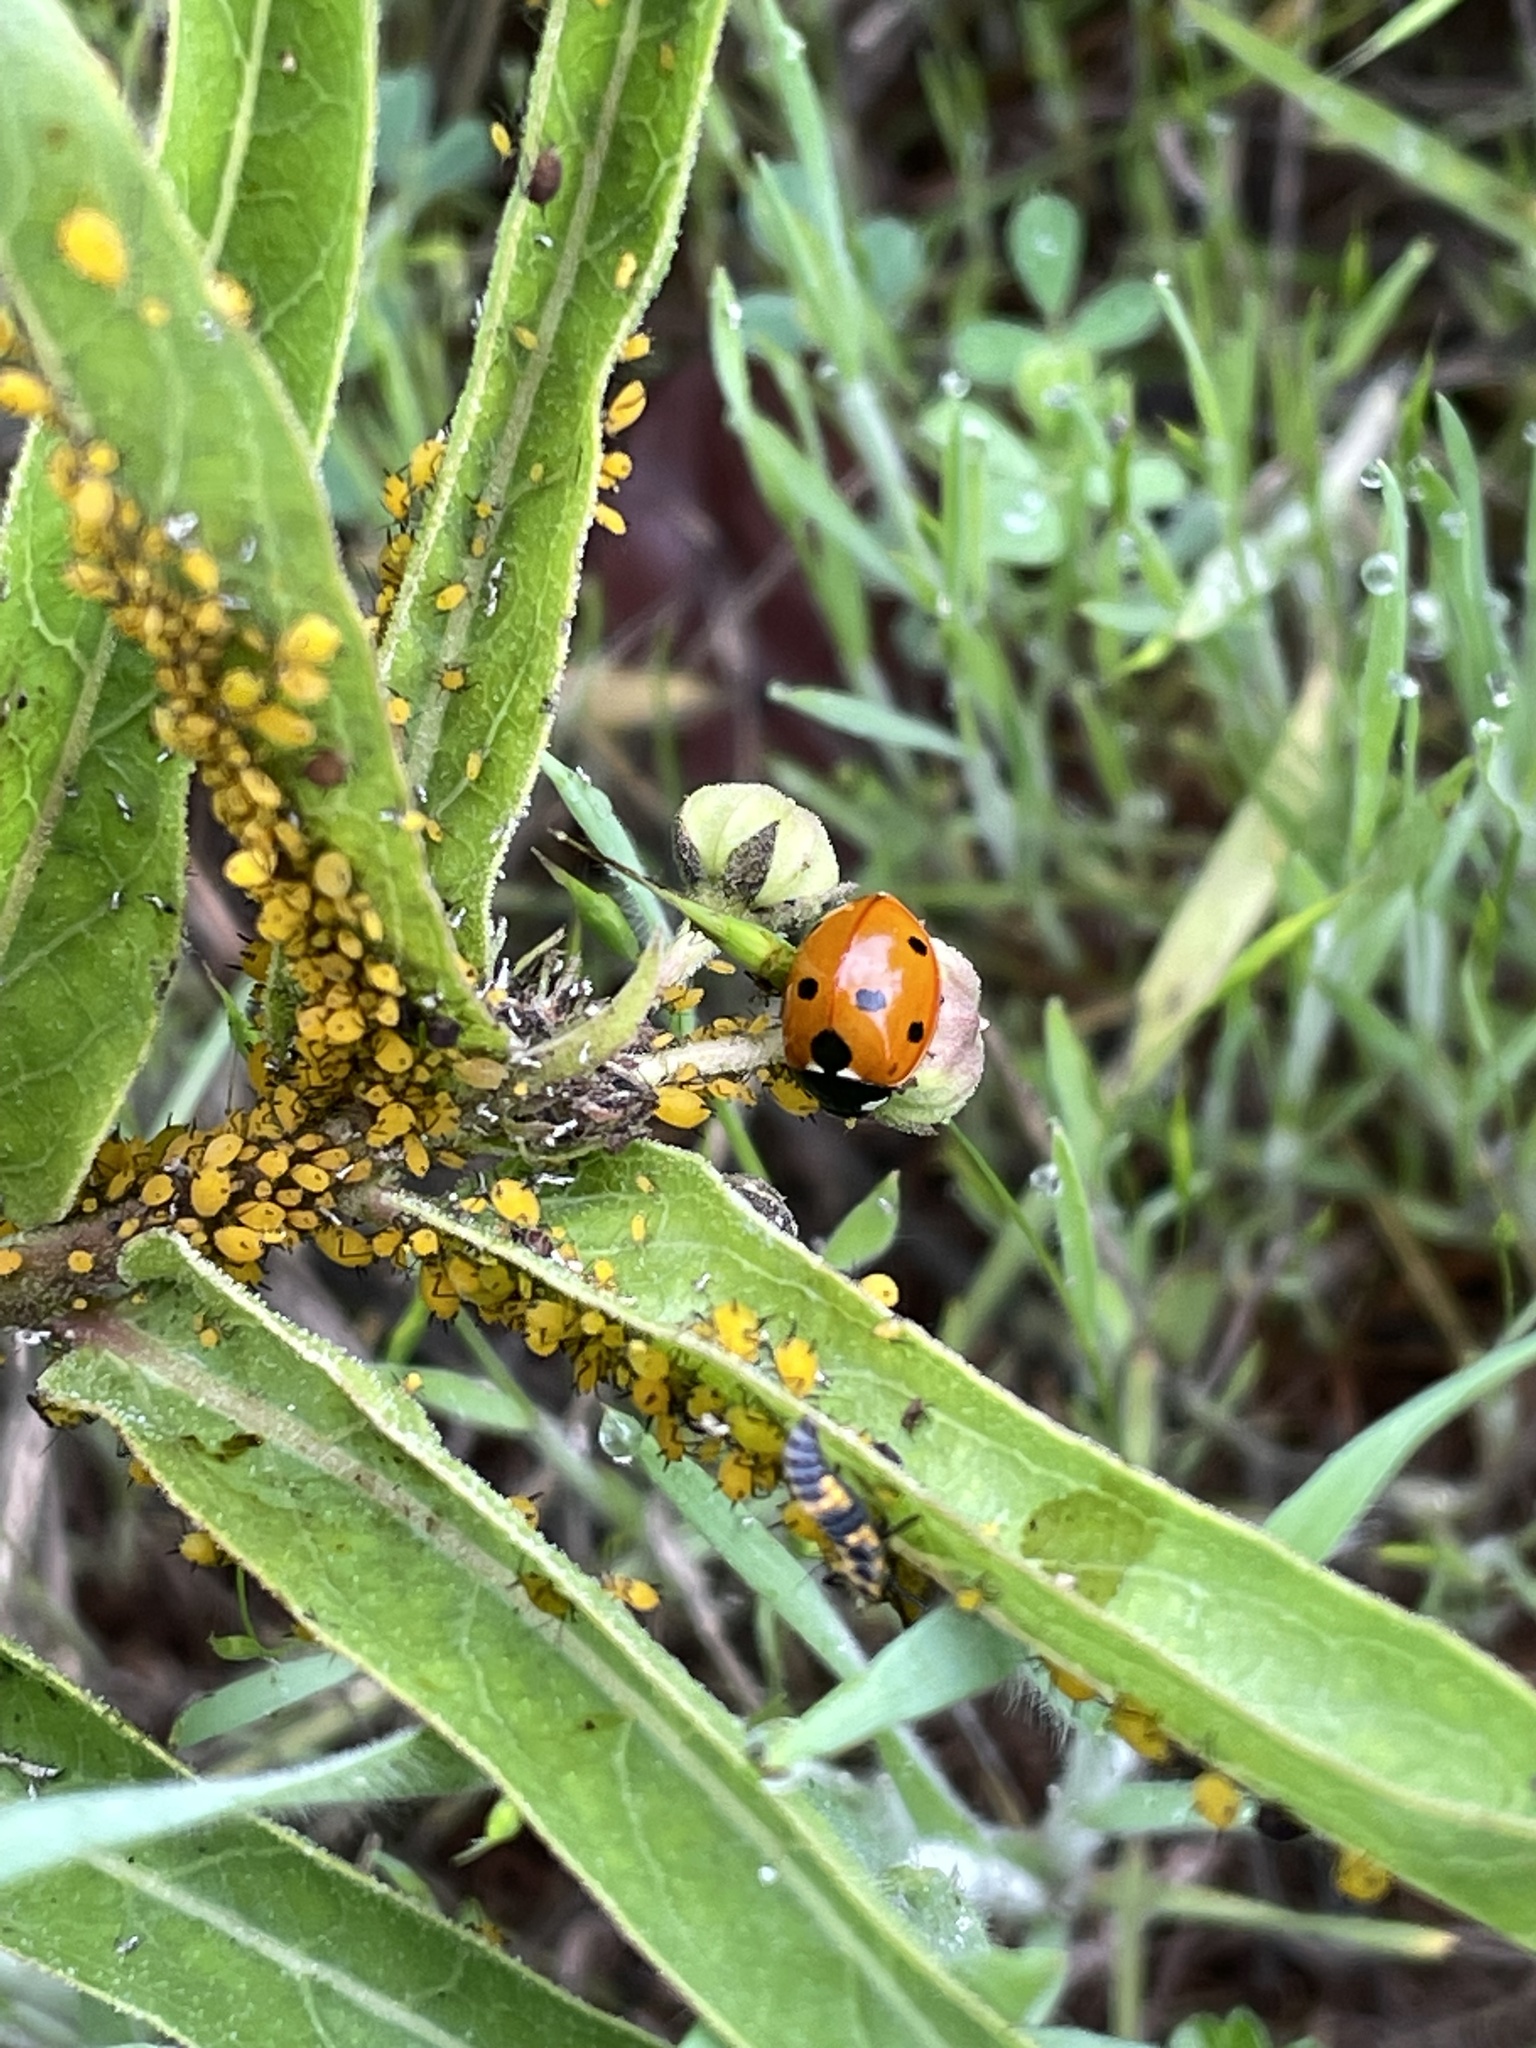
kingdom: Animalia
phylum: Arthropoda
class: Insecta
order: Hemiptera
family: Aphididae
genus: Aphis
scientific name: Aphis nerii
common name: Oleander aphid
